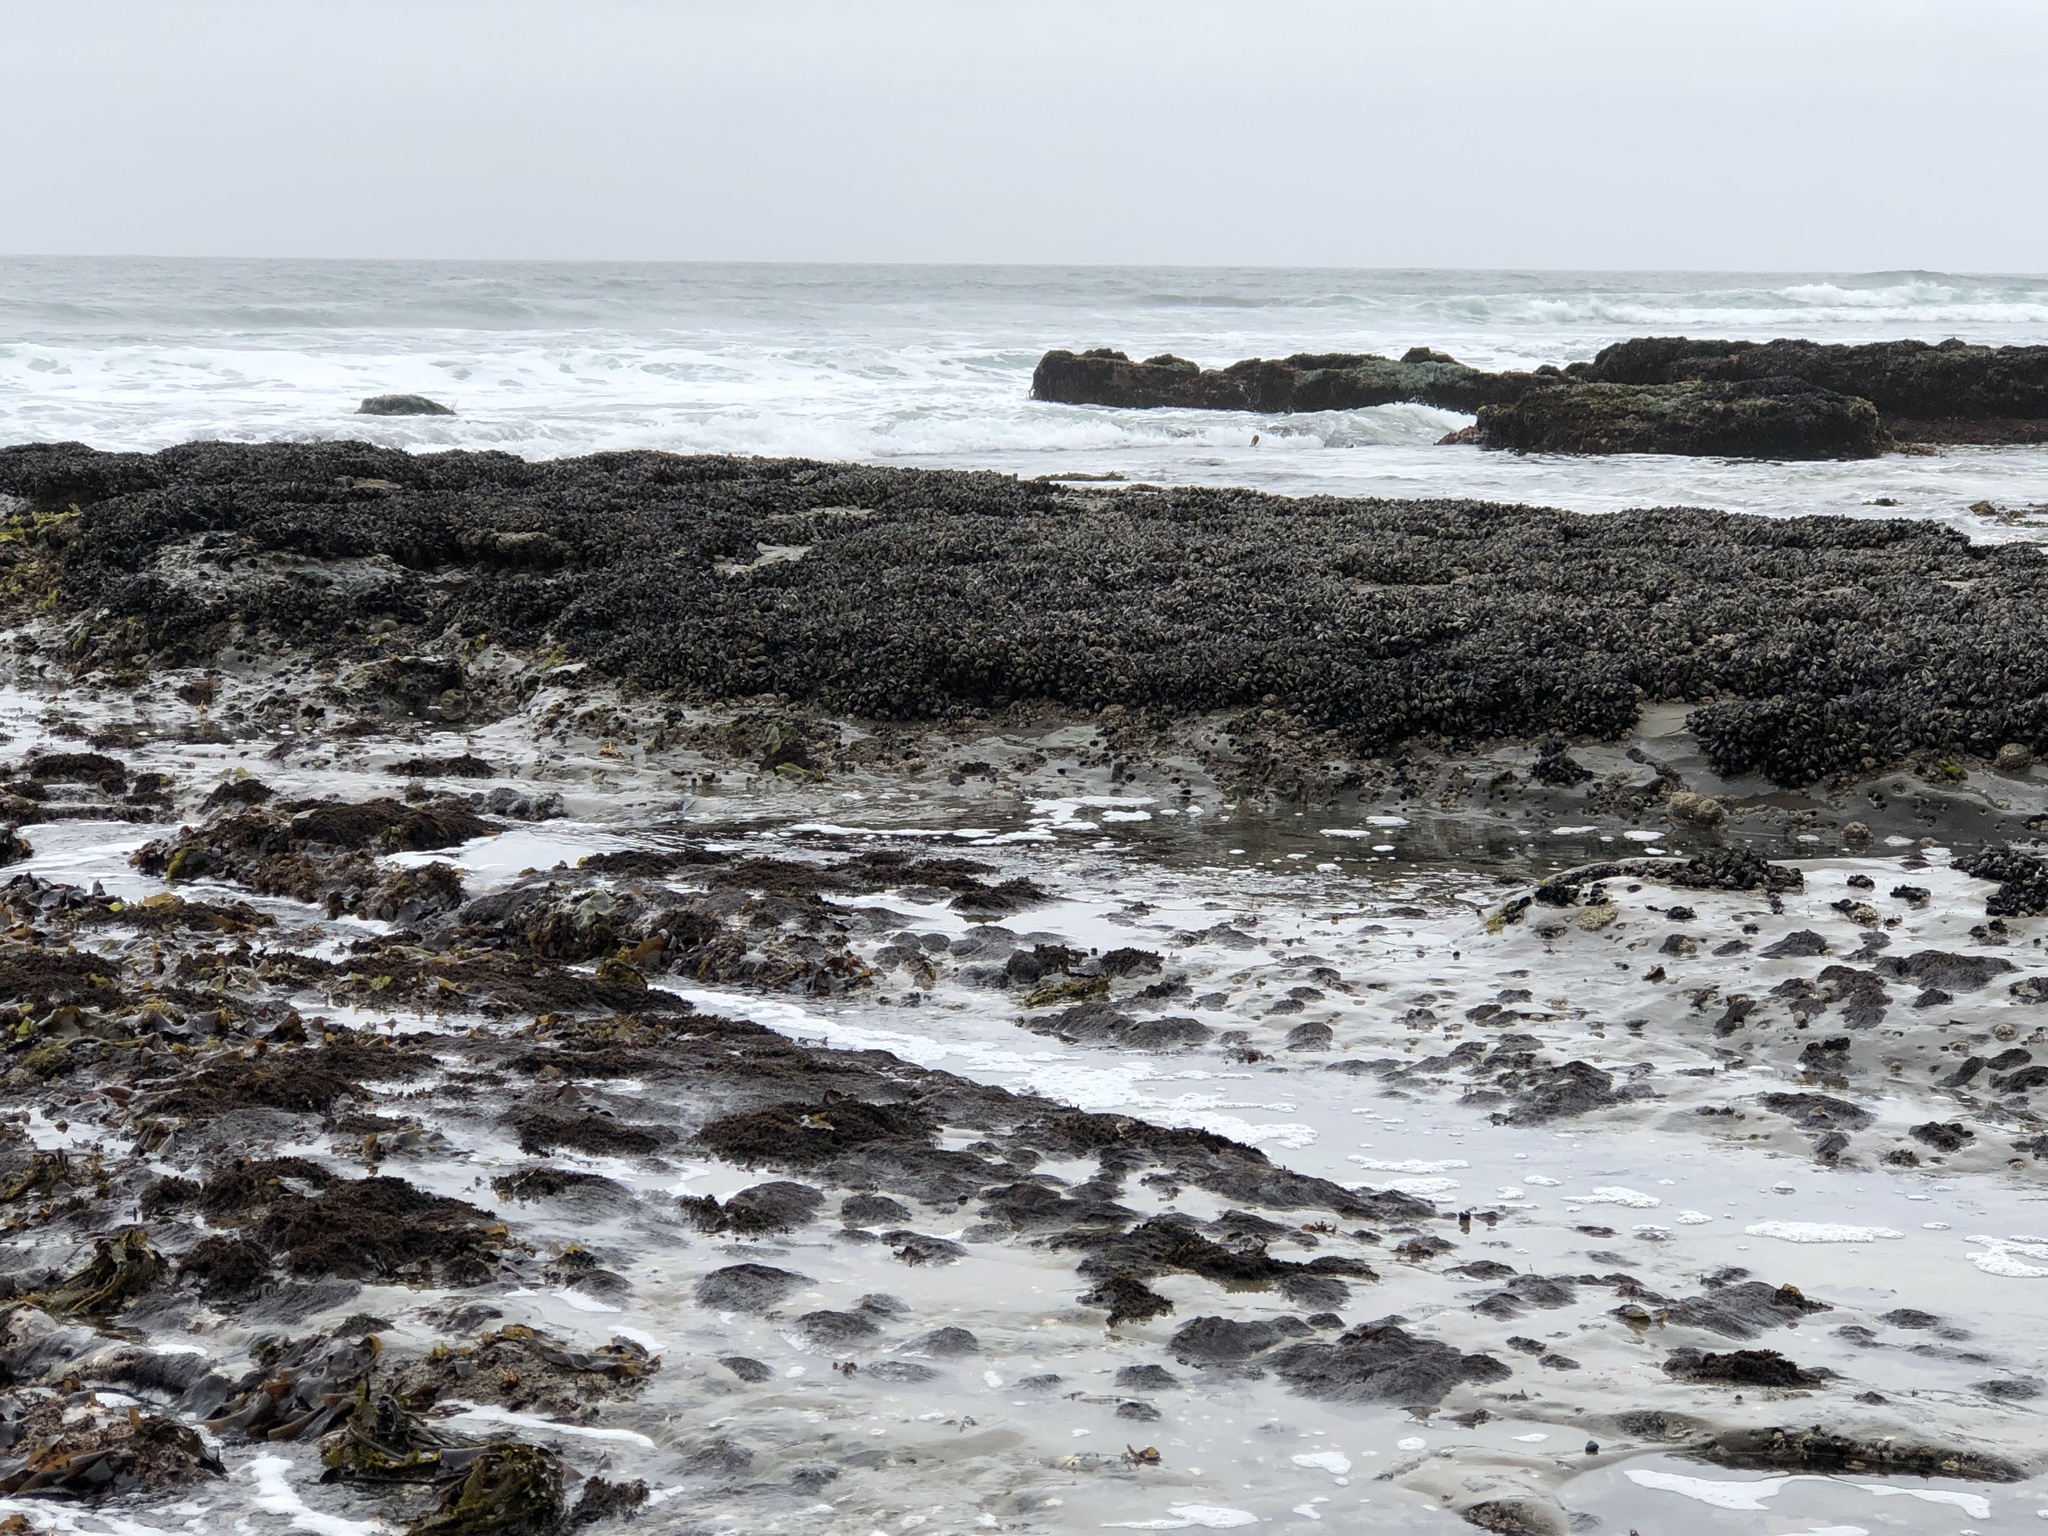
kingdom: Animalia
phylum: Mollusca
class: Bivalvia
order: Mytilida
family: Mytilidae
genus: Mytilus
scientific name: Mytilus californianus
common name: California mussel
